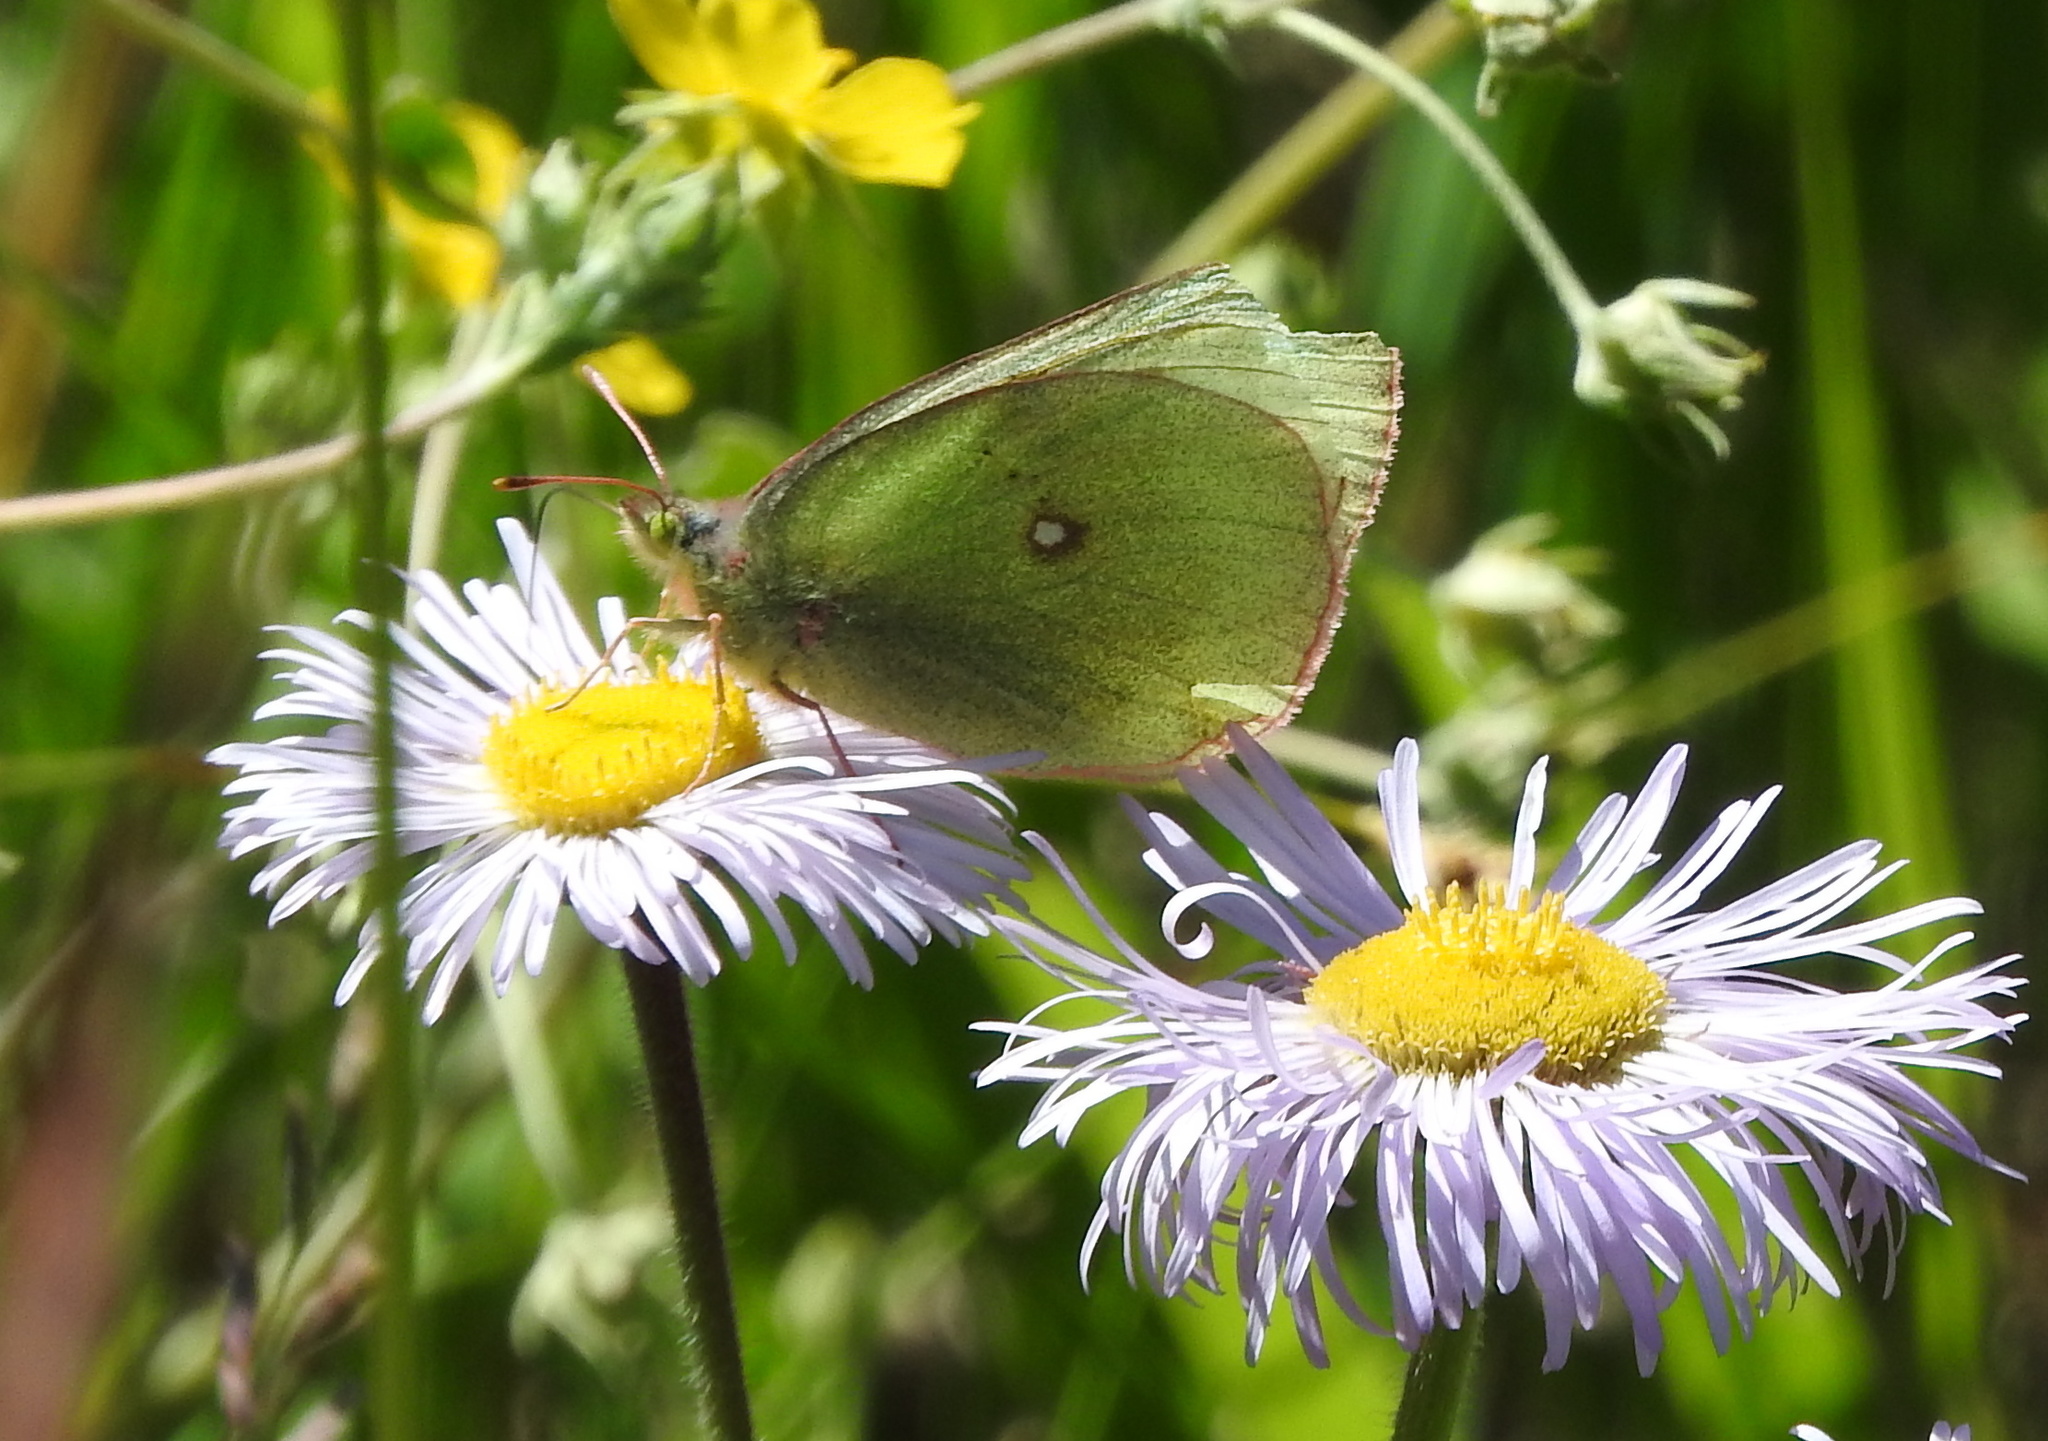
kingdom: Animalia
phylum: Arthropoda
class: Insecta
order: Lepidoptera
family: Pieridae
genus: Colias
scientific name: Colias scudderi
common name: Willow sulphur
